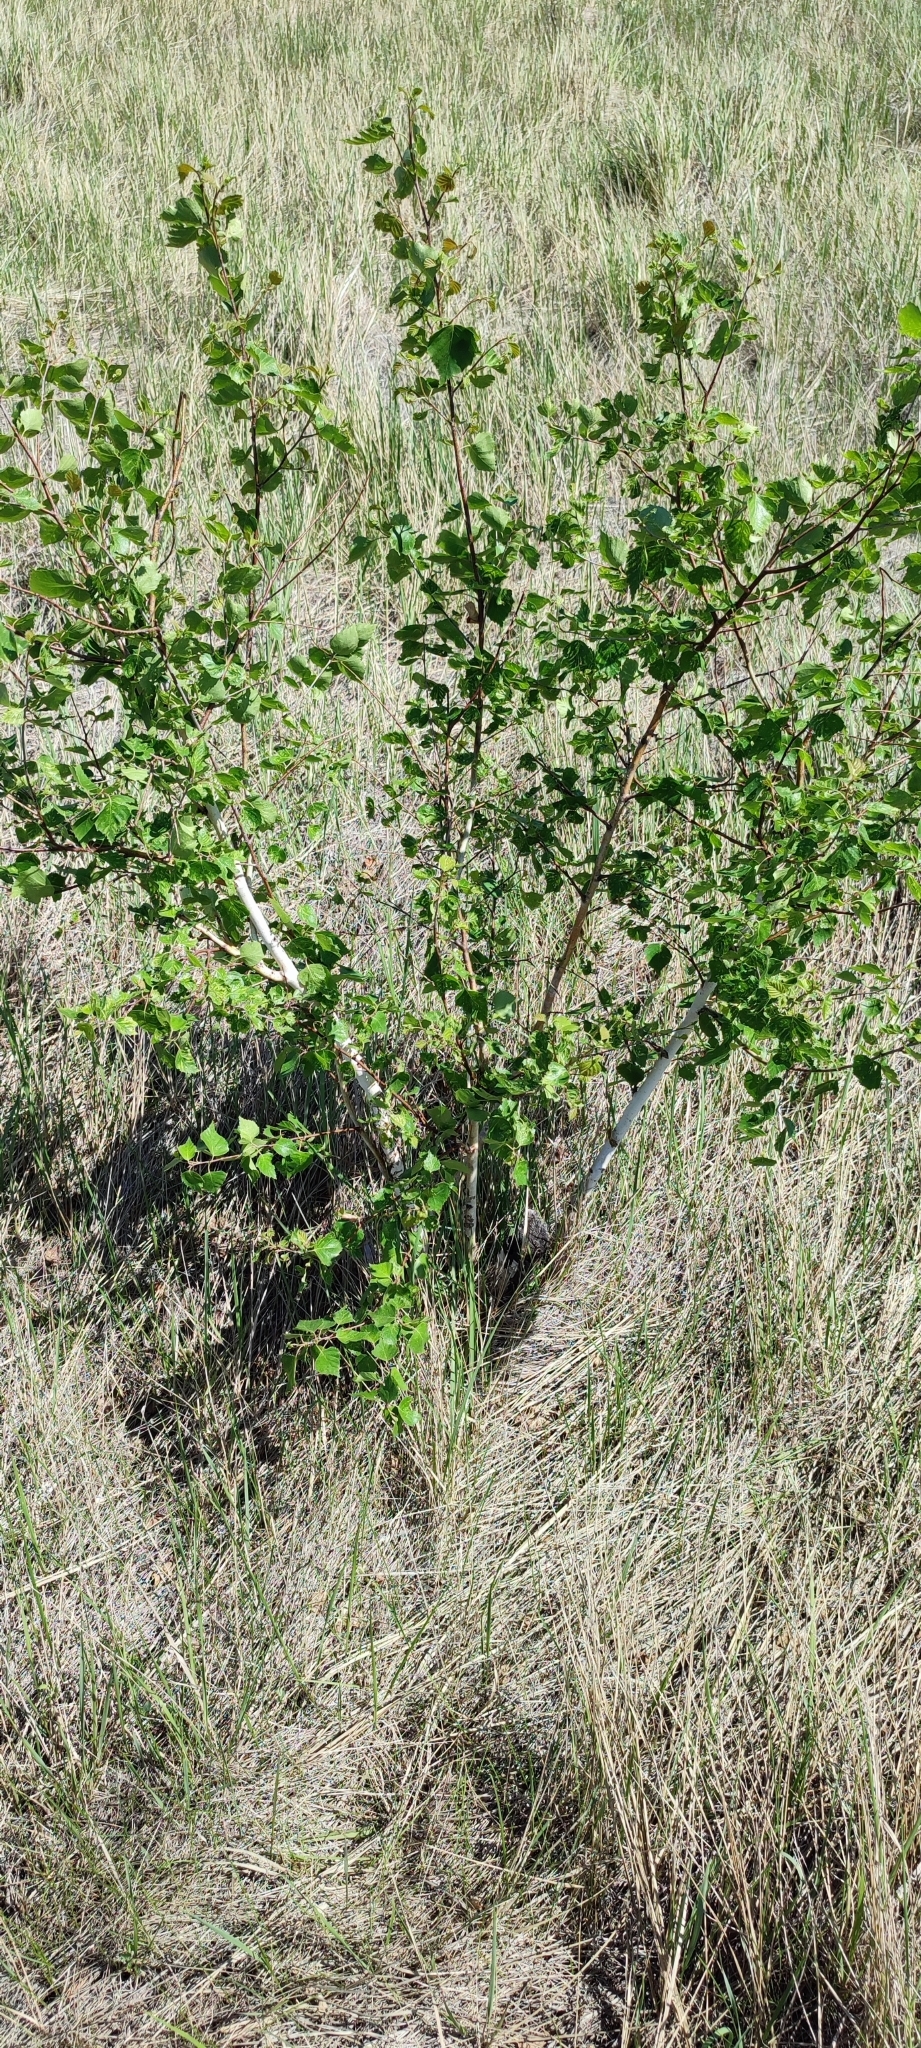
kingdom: Plantae
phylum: Tracheophyta
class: Magnoliopsida
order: Fagales
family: Betulaceae
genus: Betula
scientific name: Betula pendula
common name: Silver birch
